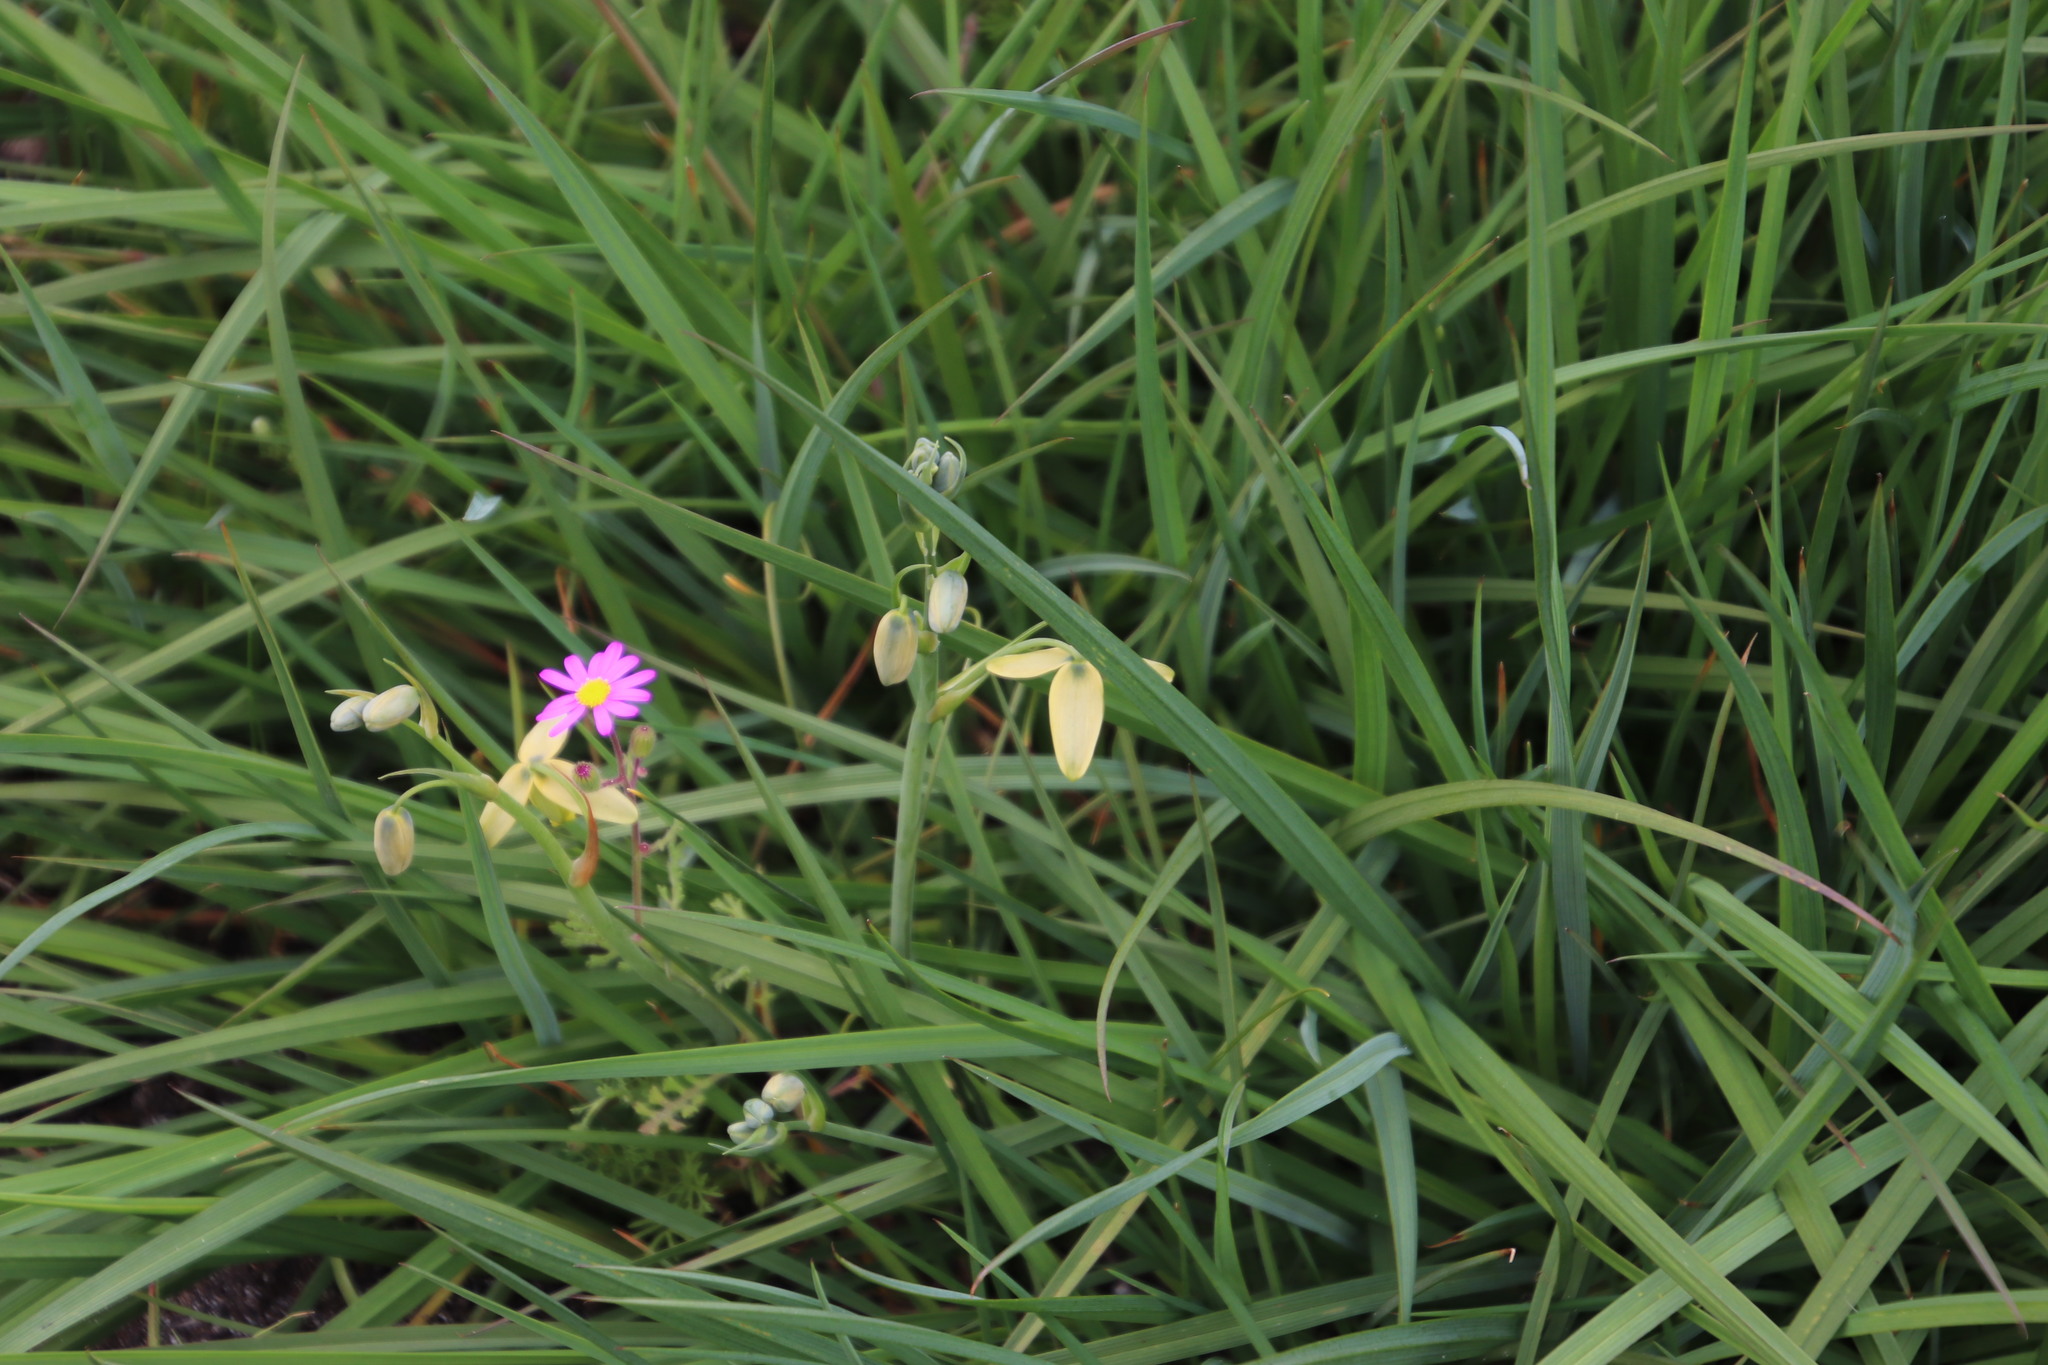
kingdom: Plantae
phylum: Tracheophyta
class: Liliopsida
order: Asparagales
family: Asparagaceae
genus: Albuca
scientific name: Albuca cooperi
